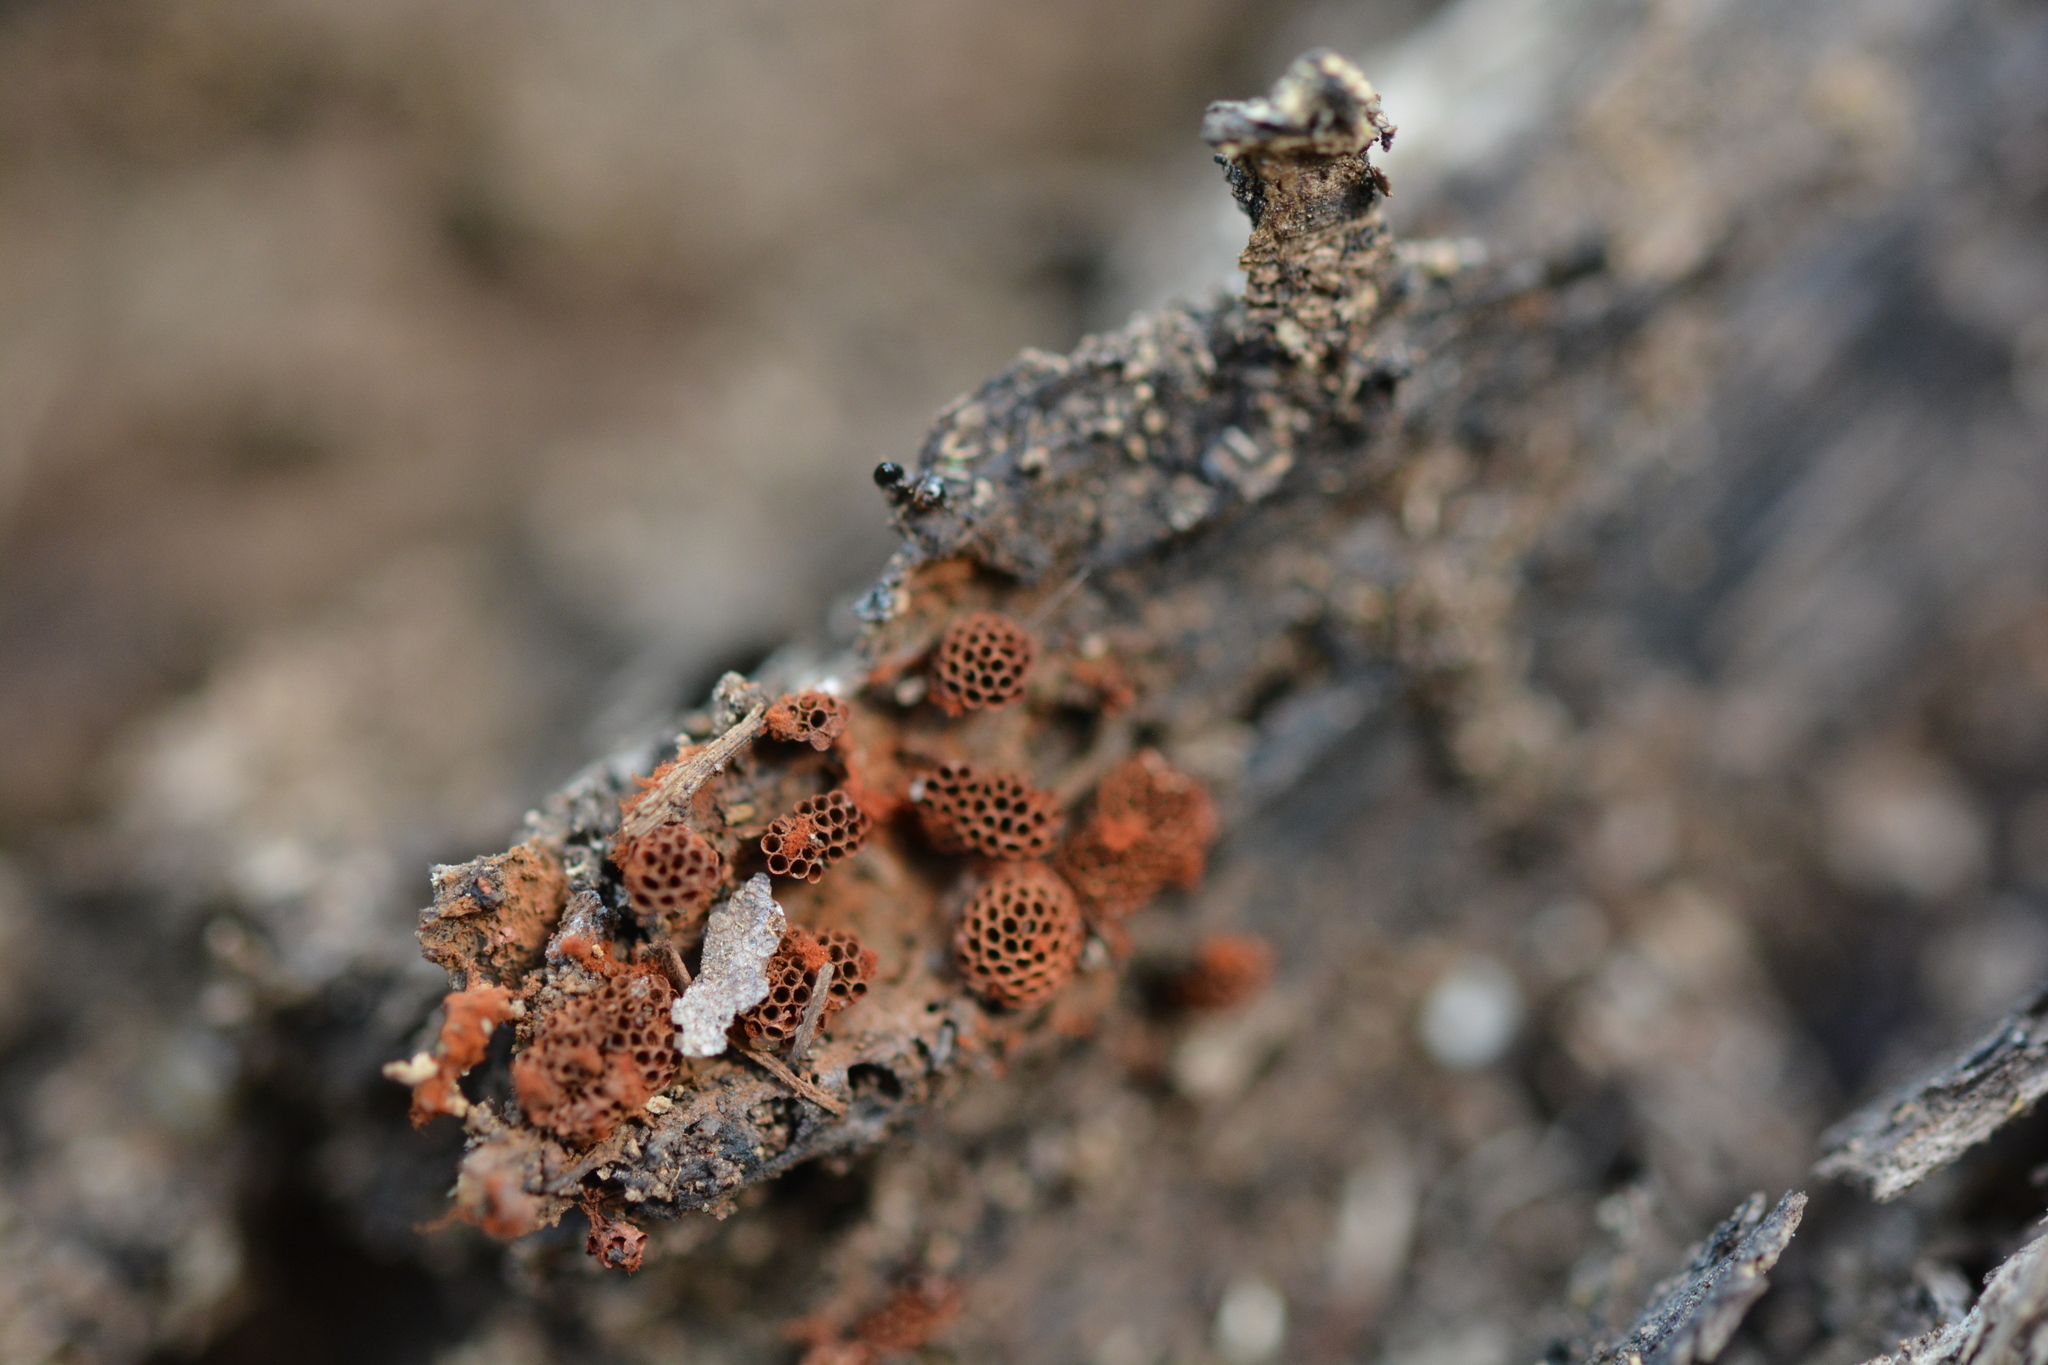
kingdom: Protozoa
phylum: Mycetozoa
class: Myxomycetes
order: Trichiales
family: Trichiaceae
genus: Metatrichia
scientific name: Metatrichia vesparia
